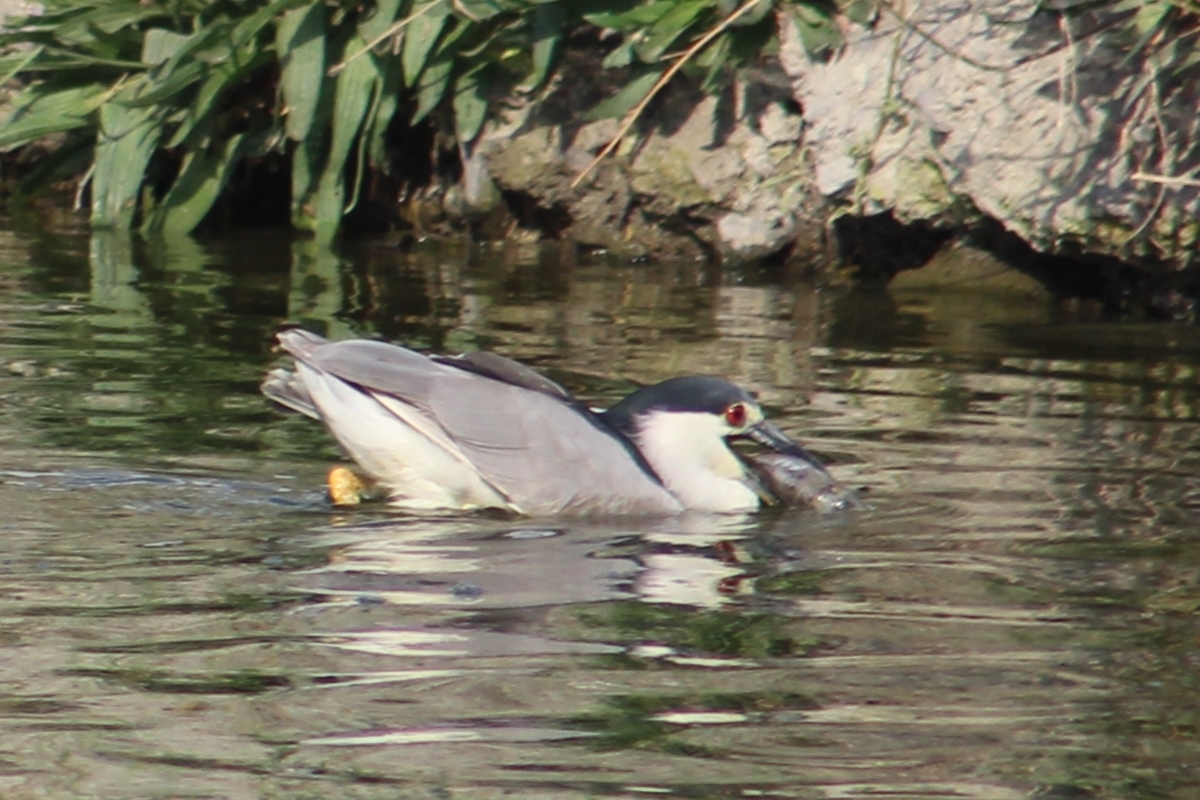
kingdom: Animalia
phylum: Chordata
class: Aves
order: Pelecaniformes
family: Ardeidae
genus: Nycticorax
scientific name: Nycticorax nycticorax
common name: Black-crowned night heron
